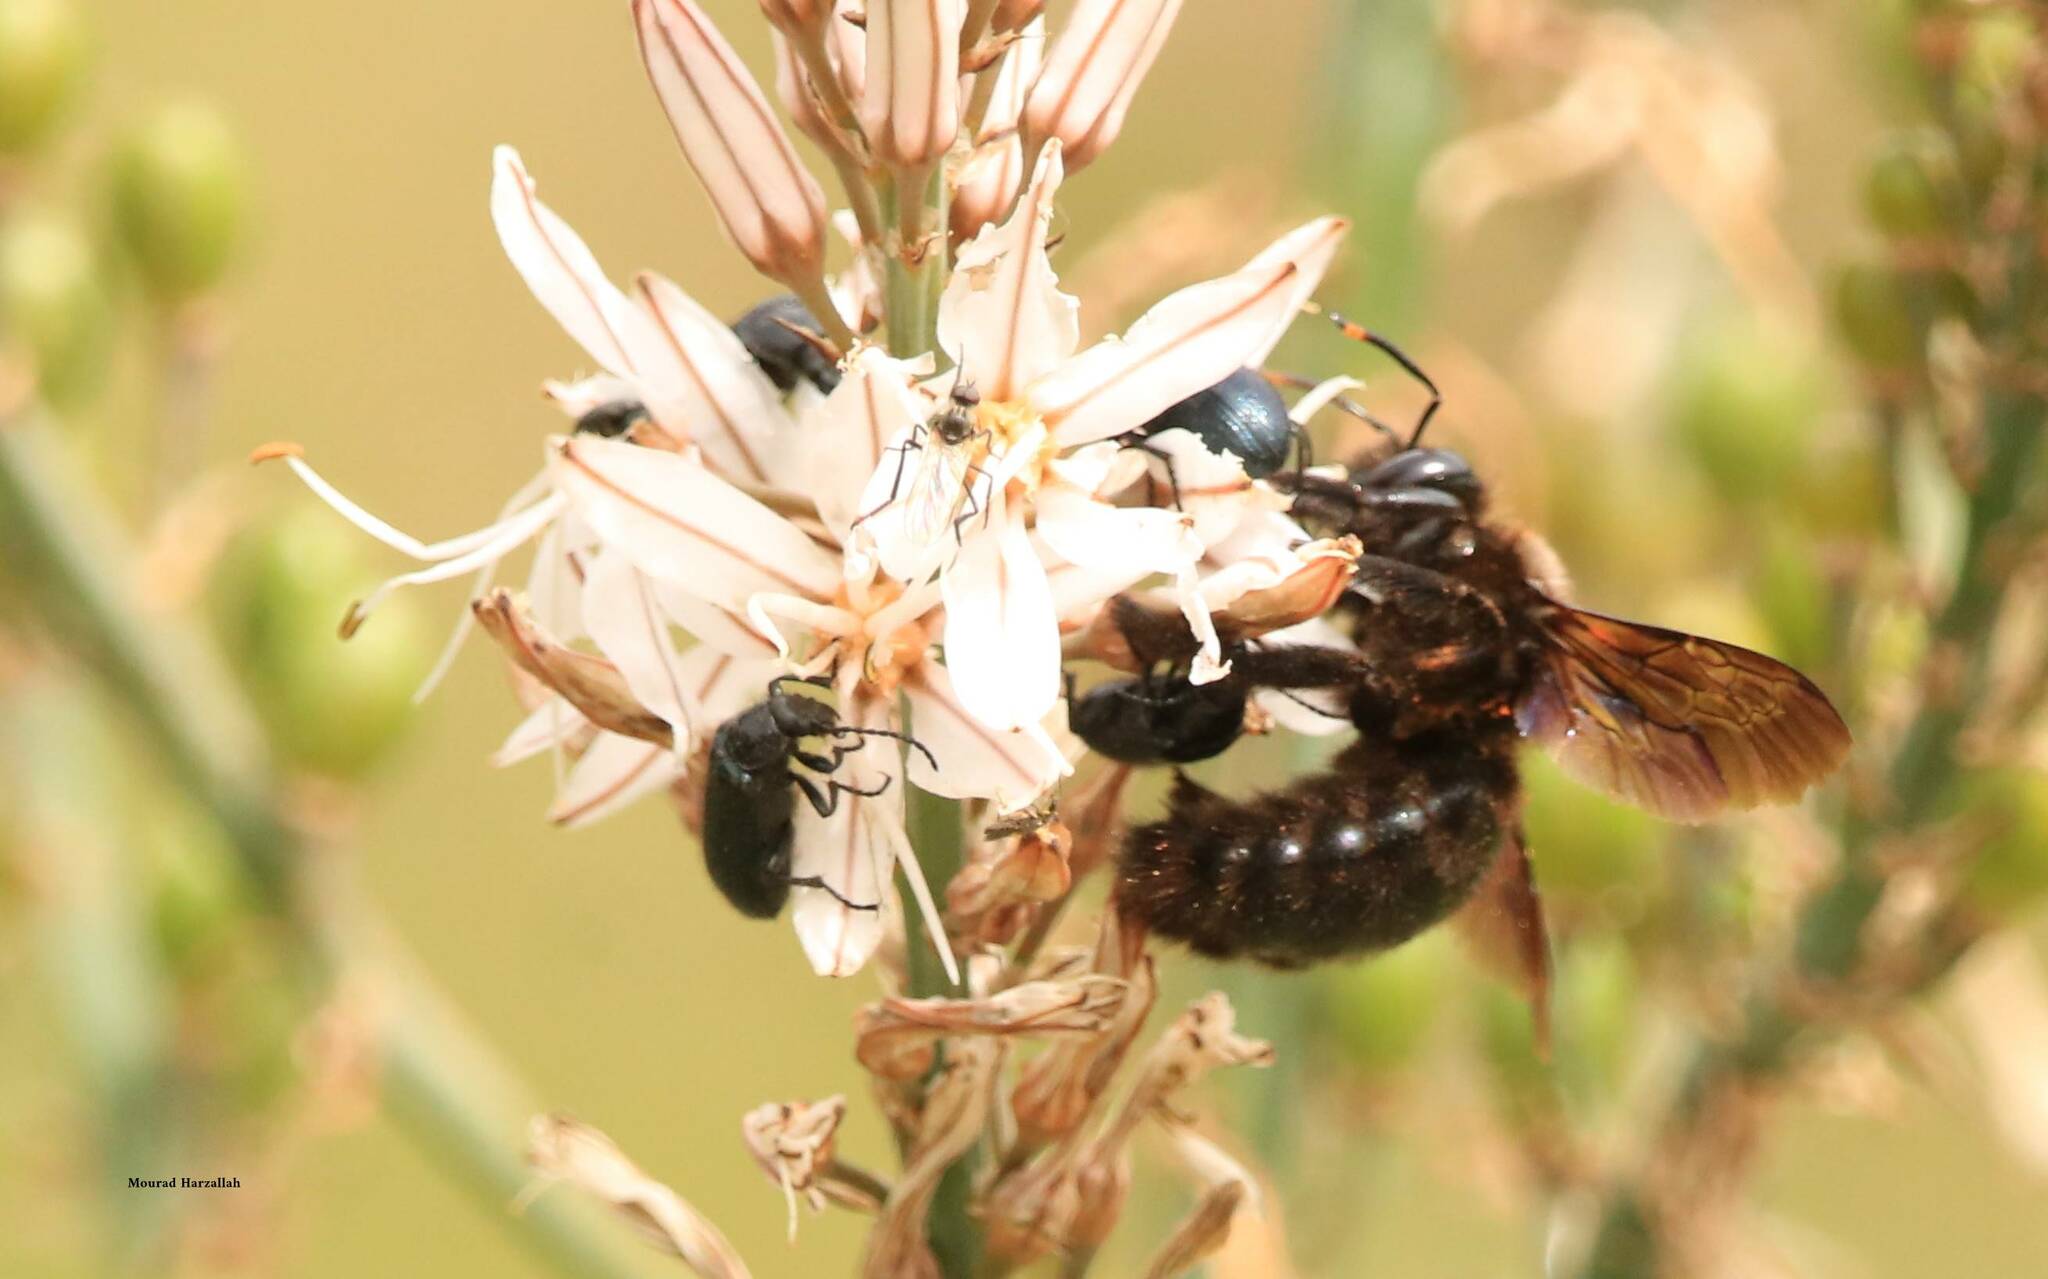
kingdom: Animalia
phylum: Arthropoda
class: Insecta
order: Hymenoptera
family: Apidae
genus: Xylocopa
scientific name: Xylocopa violacea
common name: Violet carpenter bee
